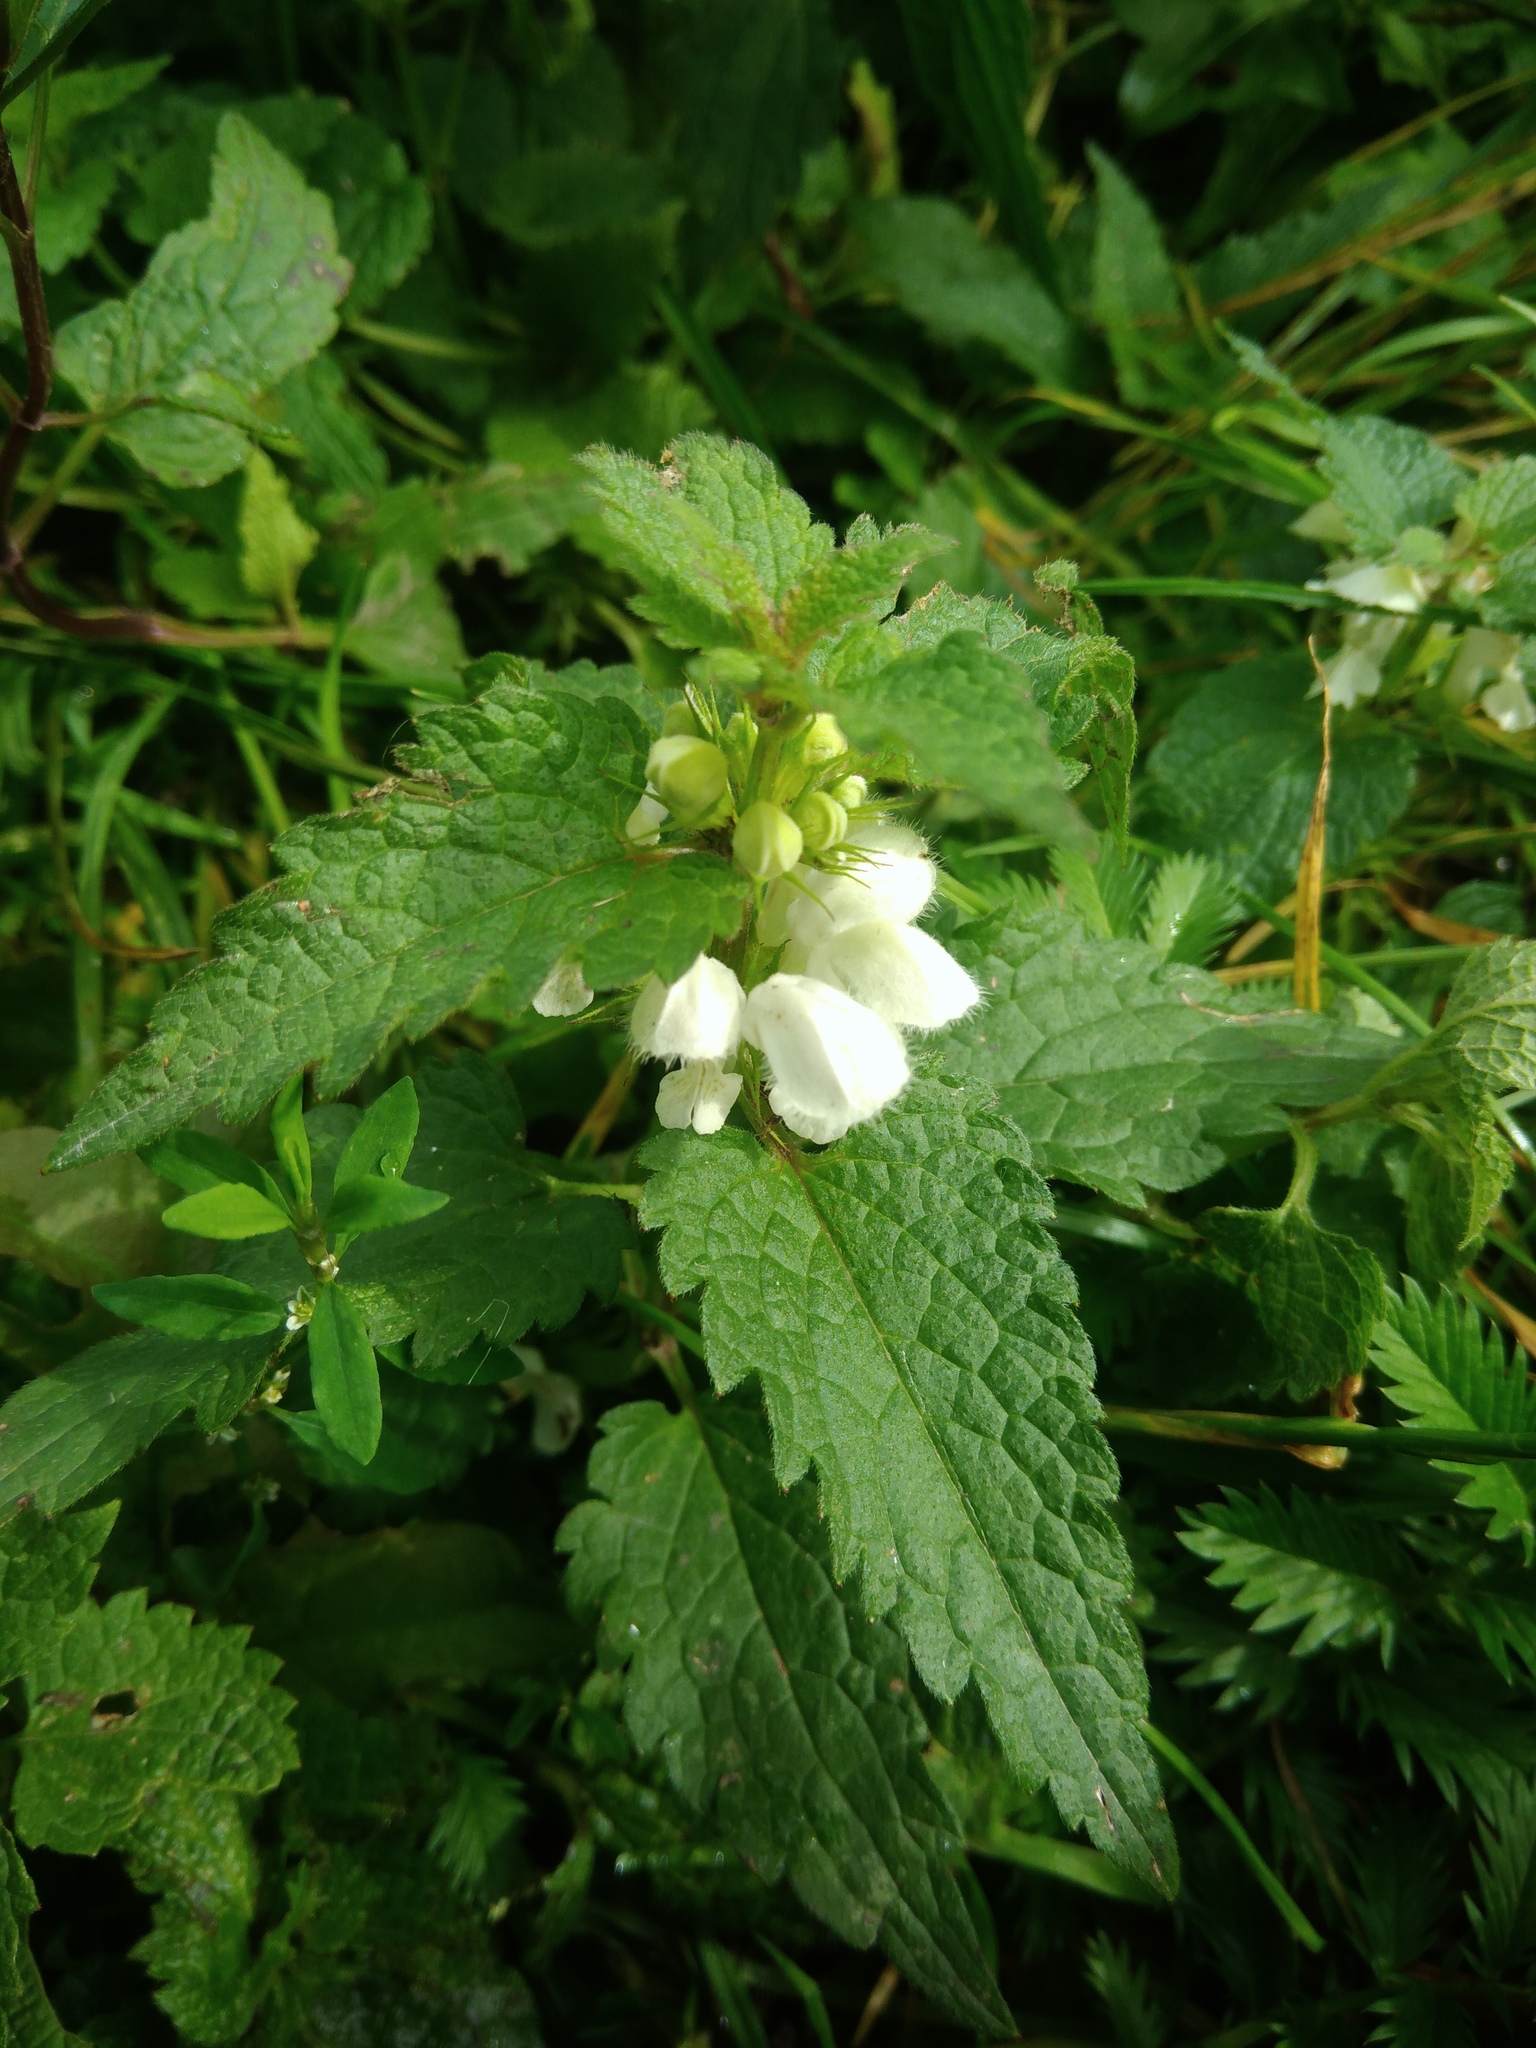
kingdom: Plantae
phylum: Tracheophyta
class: Magnoliopsida
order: Lamiales
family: Lamiaceae
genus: Lamium
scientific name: Lamium album
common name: White dead-nettle
